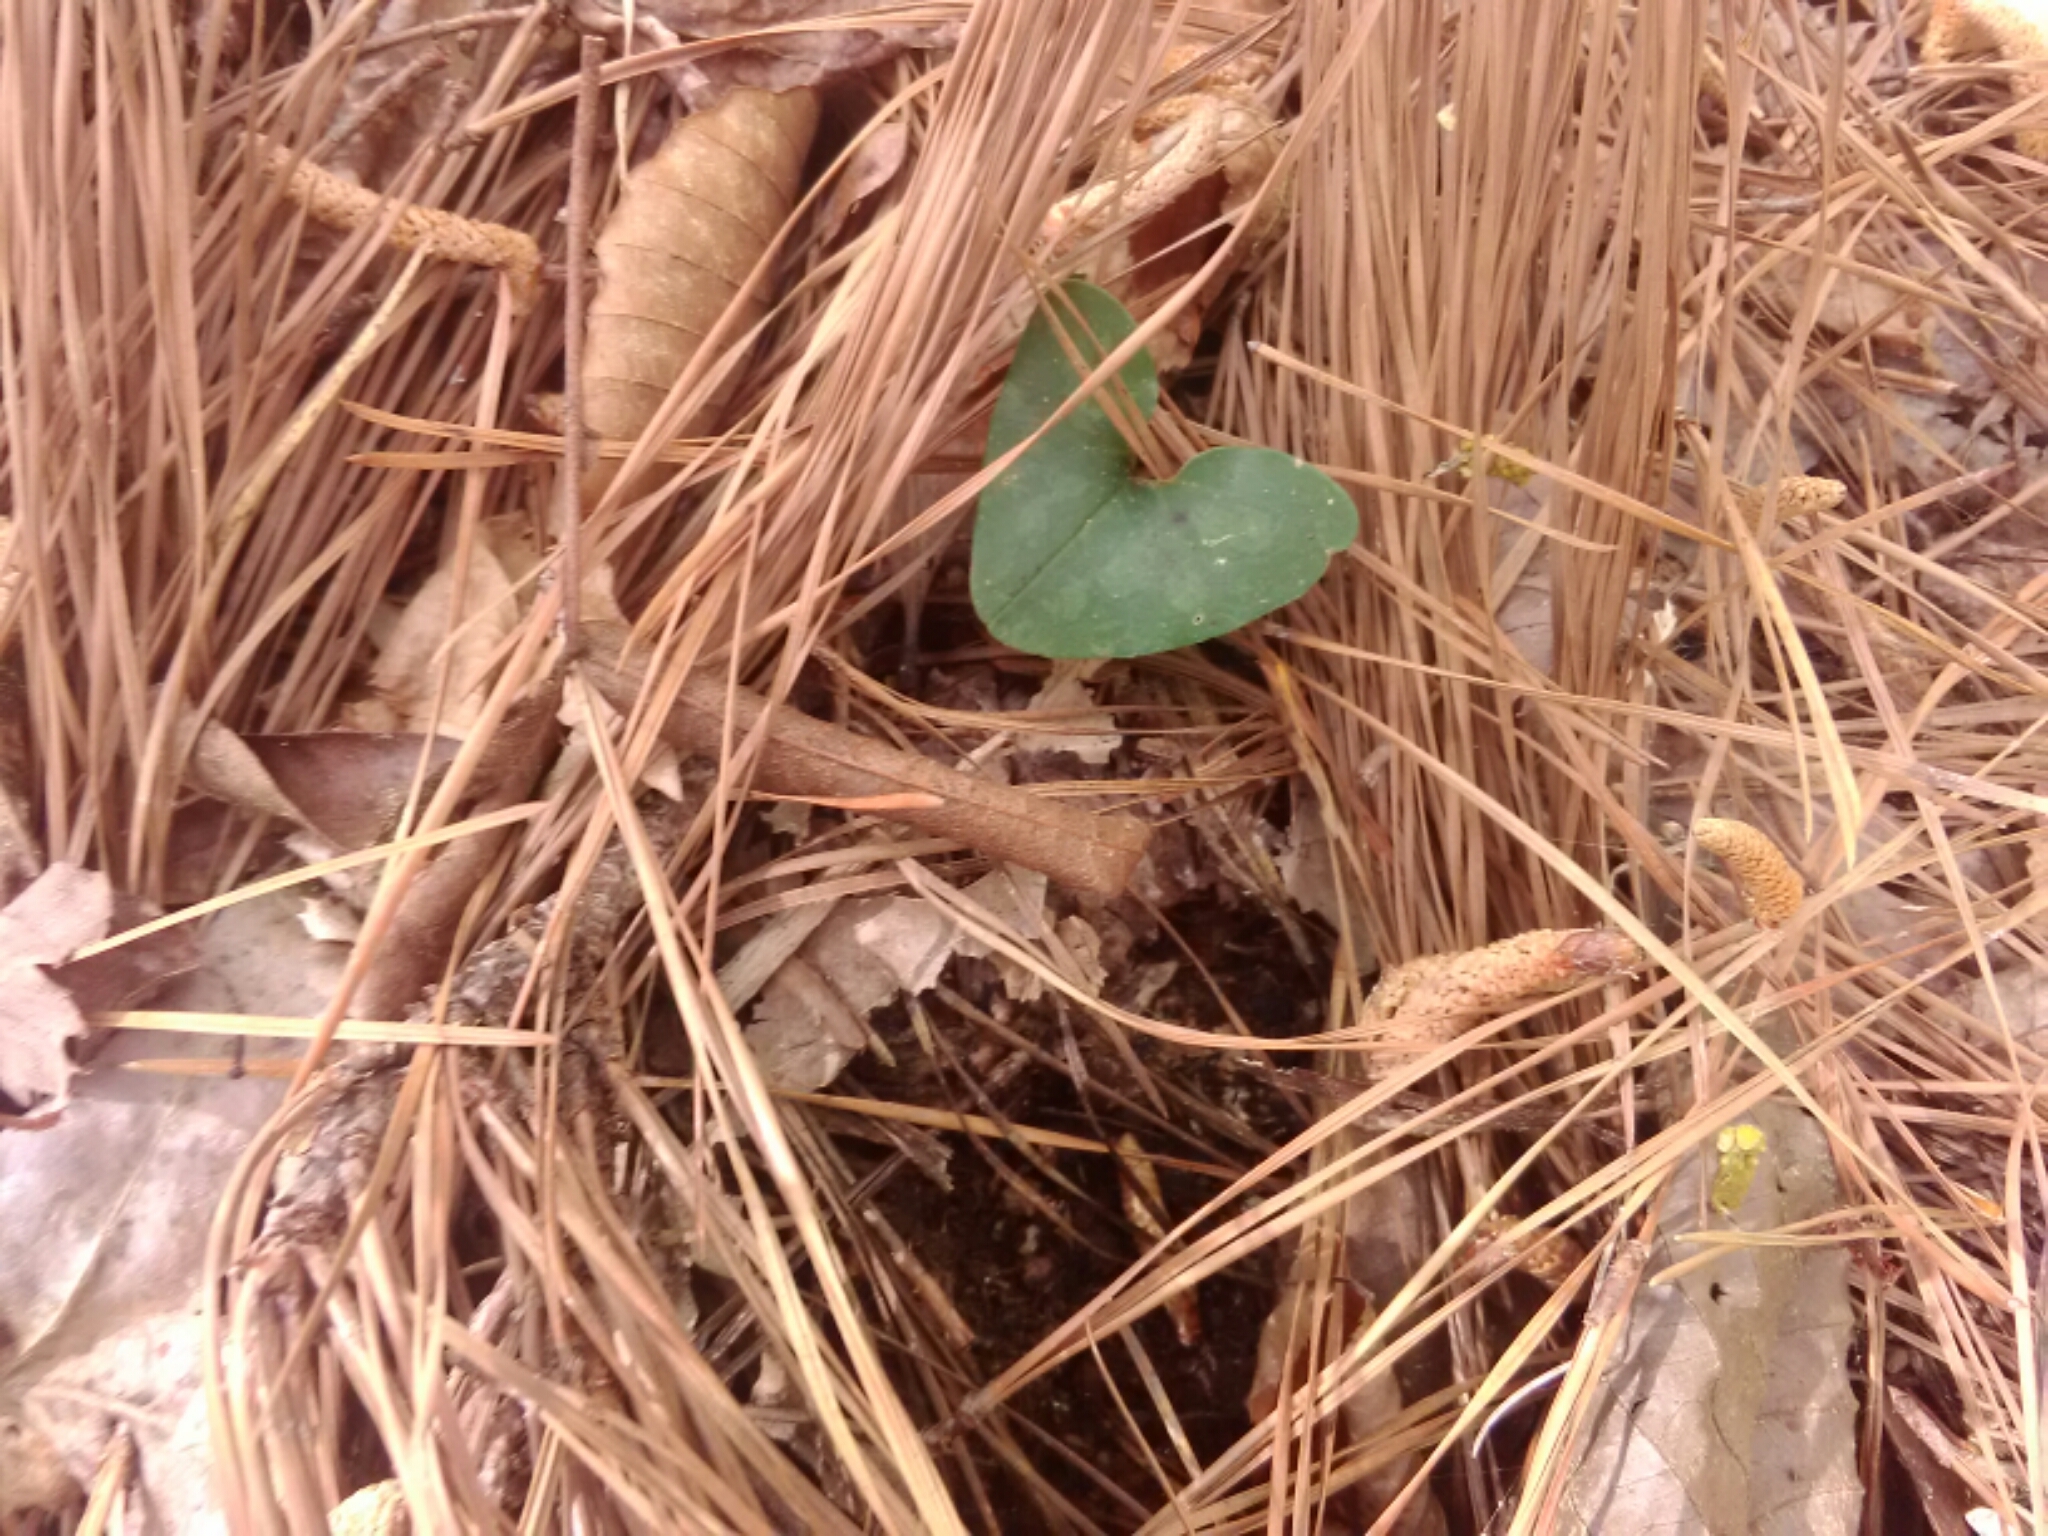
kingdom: Plantae
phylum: Tracheophyta
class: Magnoliopsida
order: Piperales
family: Aristolochiaceae
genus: Hexastylis
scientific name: Hexastylis arifolia
